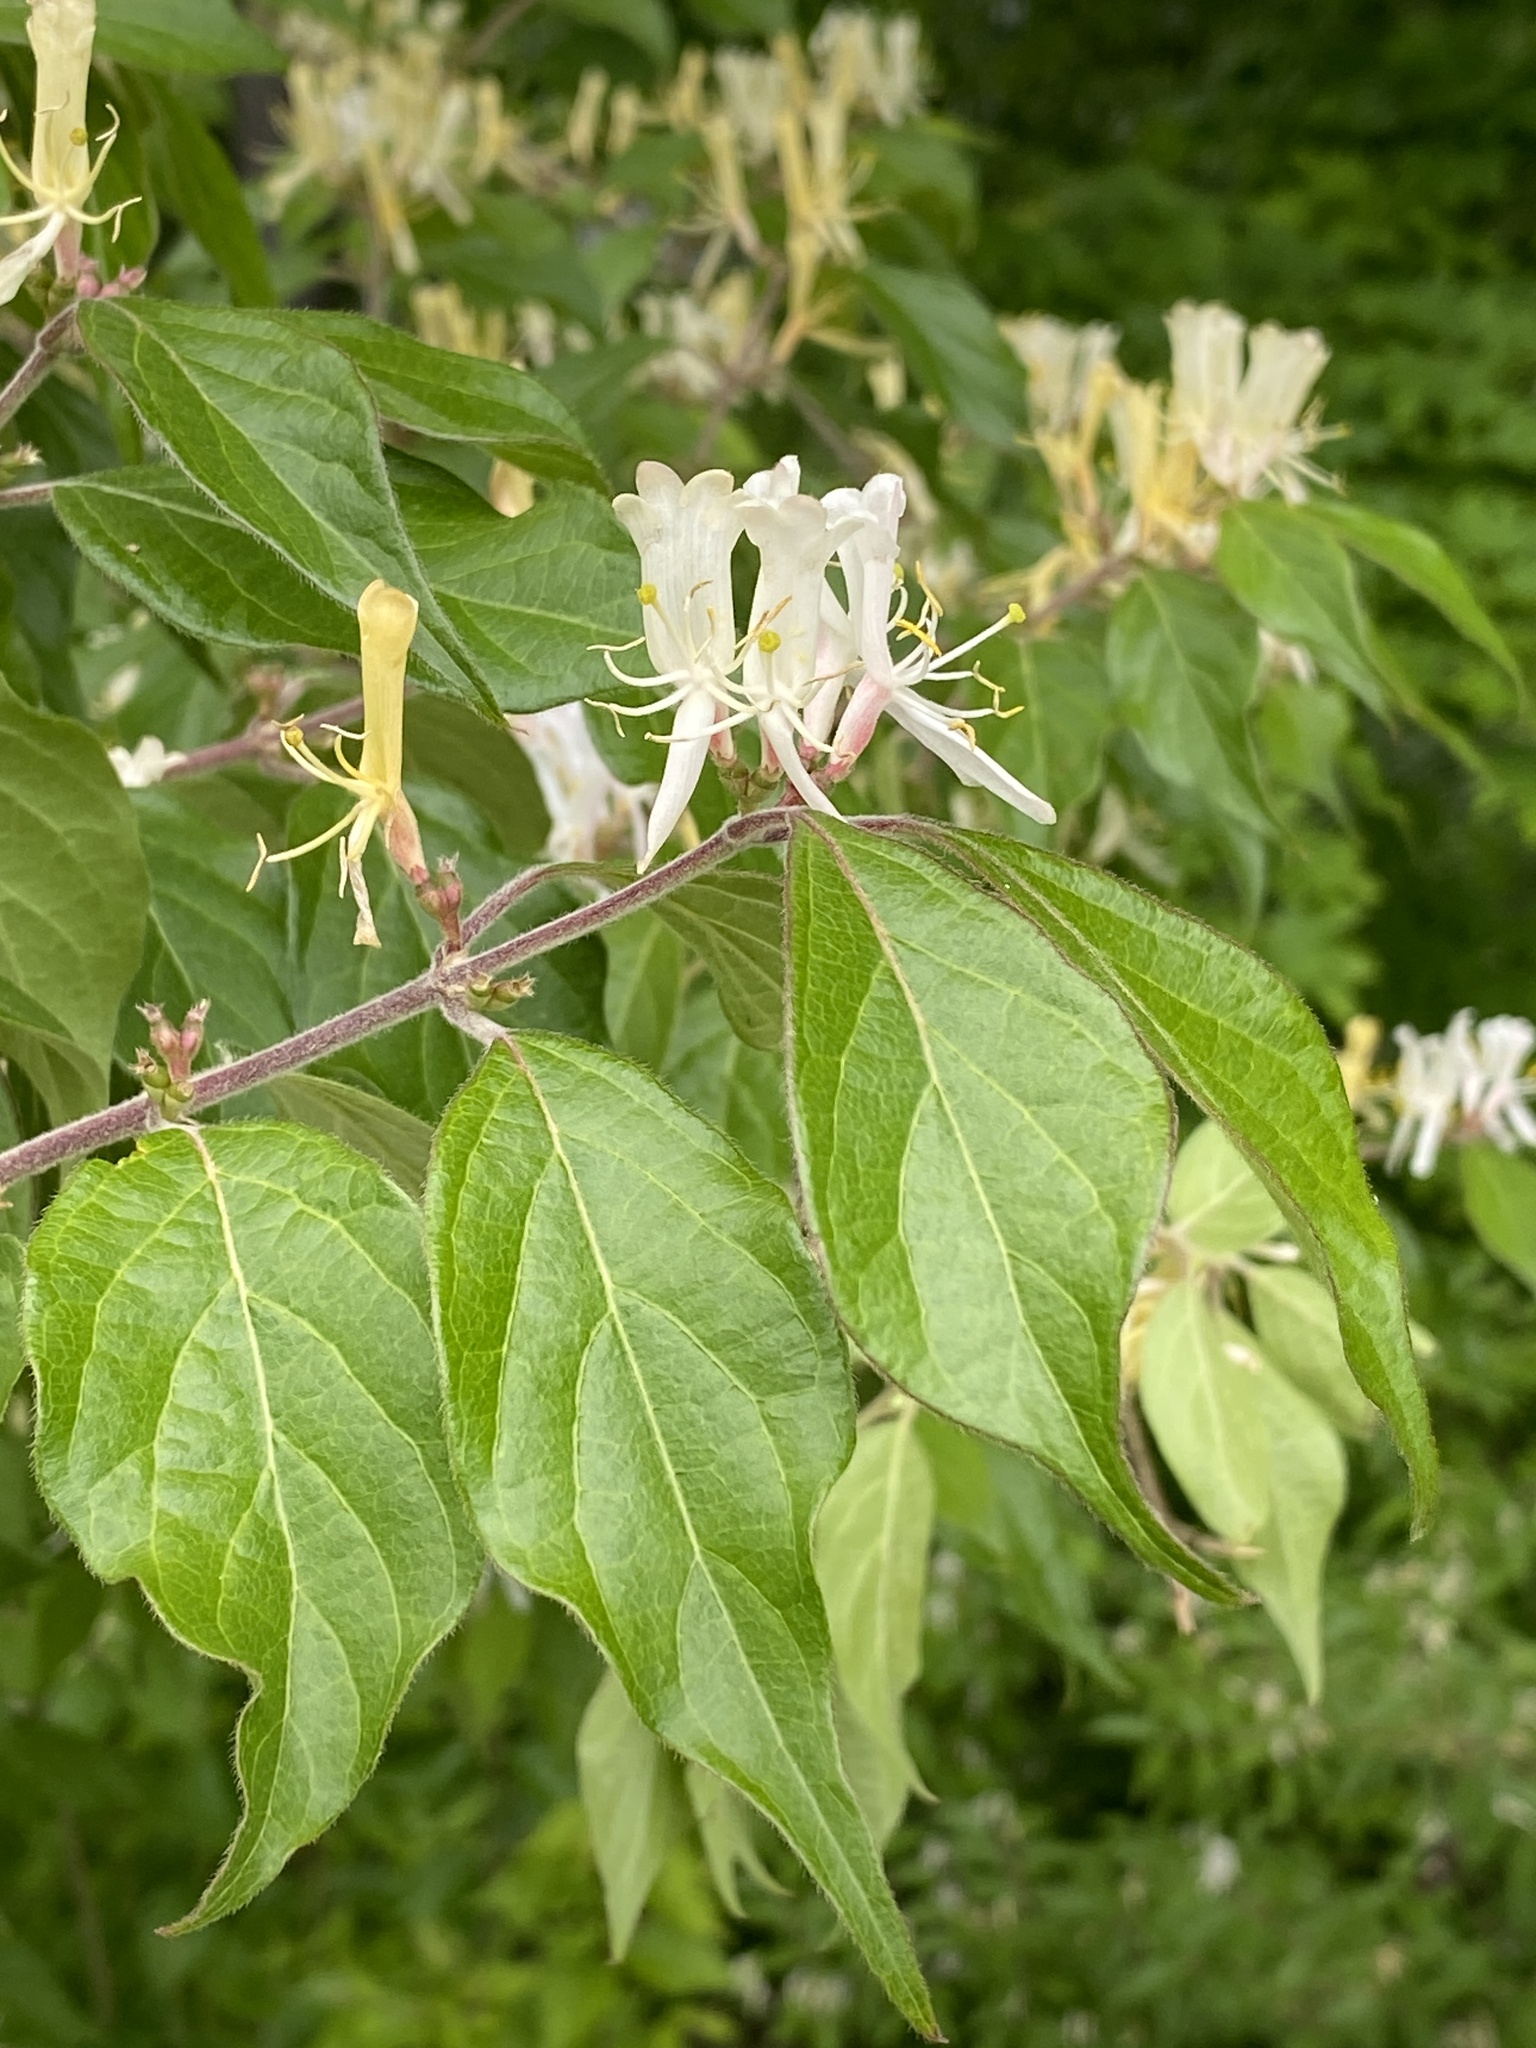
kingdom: Plantae
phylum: Tracheophyta
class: Magnoliopsida
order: Dipsacales
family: Caprifoliaceae
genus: Lonicera
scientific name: Lonicera maackii
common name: Amur honeysuckle
